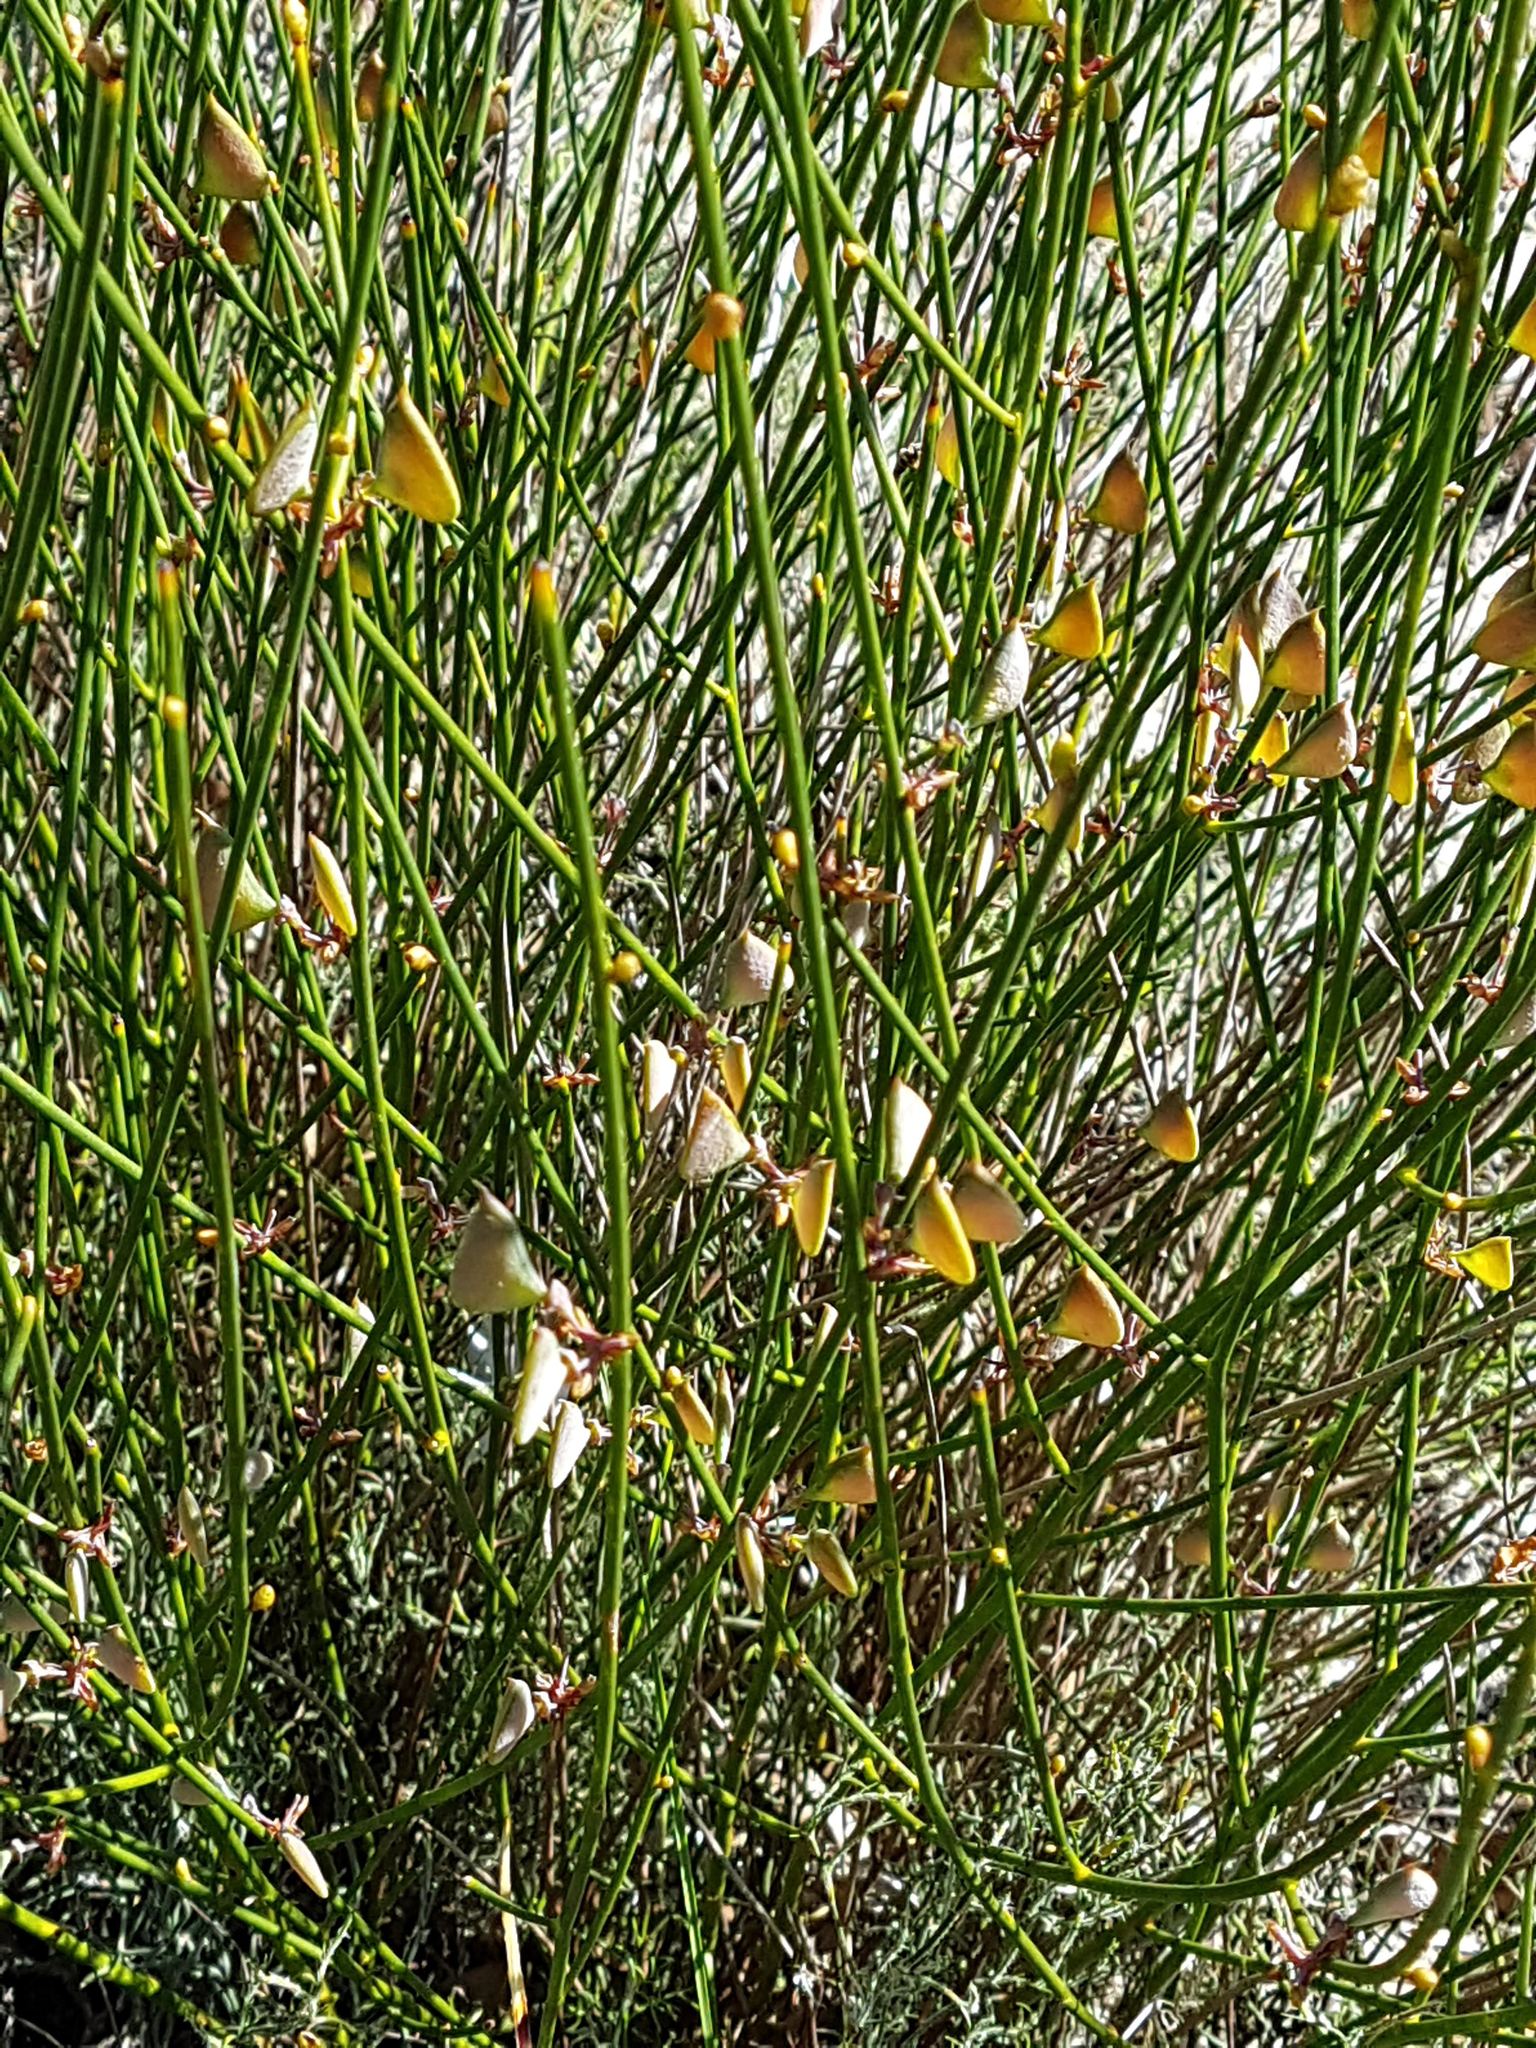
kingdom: Plantae
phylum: Tracheophyta
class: Magnoliopsida
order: Fabales
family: Fabaceae
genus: Daviesia
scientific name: Daviesia triflora
